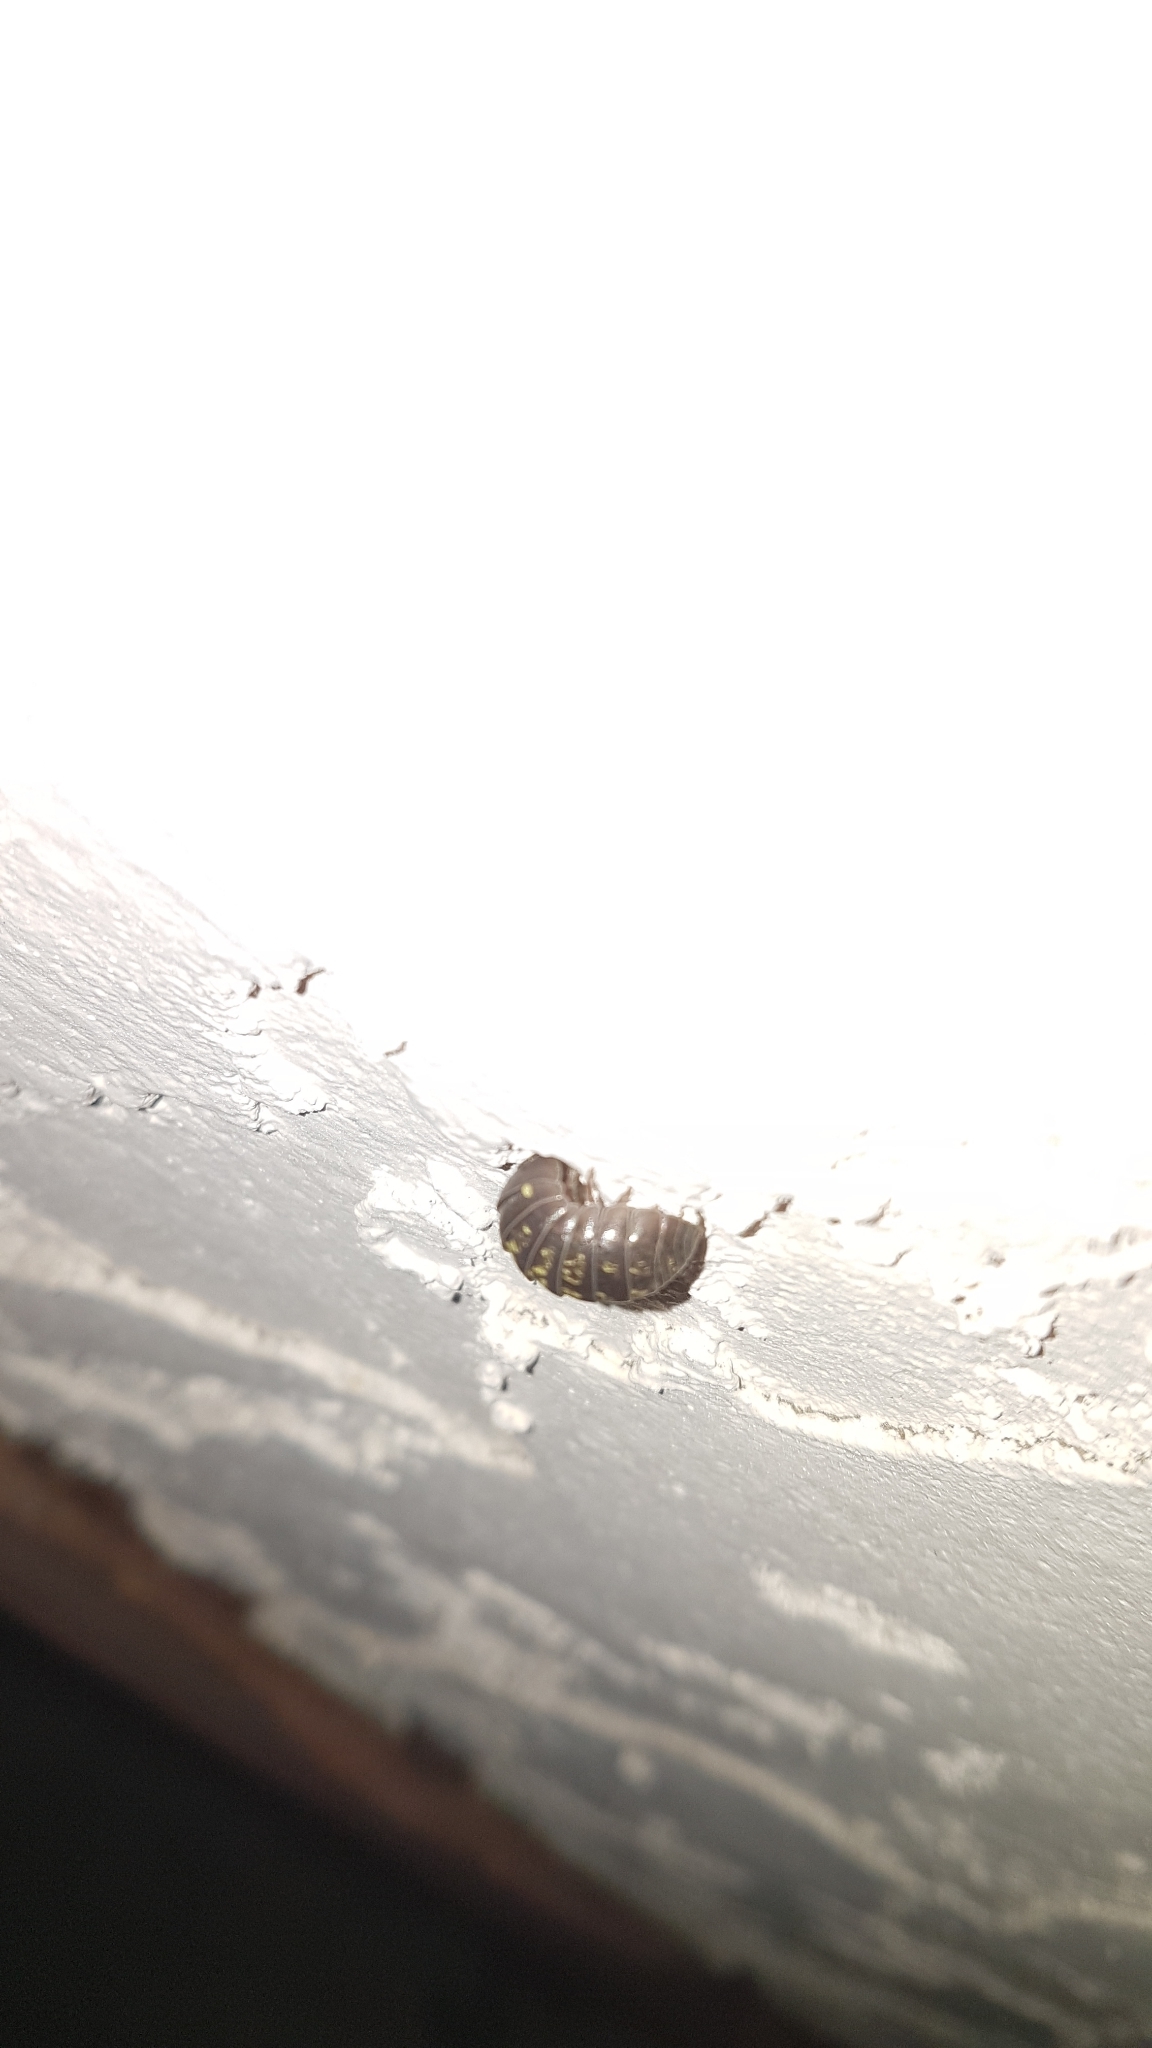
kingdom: Animalia
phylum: Arthropoda
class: Malacostraca
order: Isopoda
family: Armadillidiidae
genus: Armadillidium
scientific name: Armadillidium vulgare
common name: Common pill woodlouse
